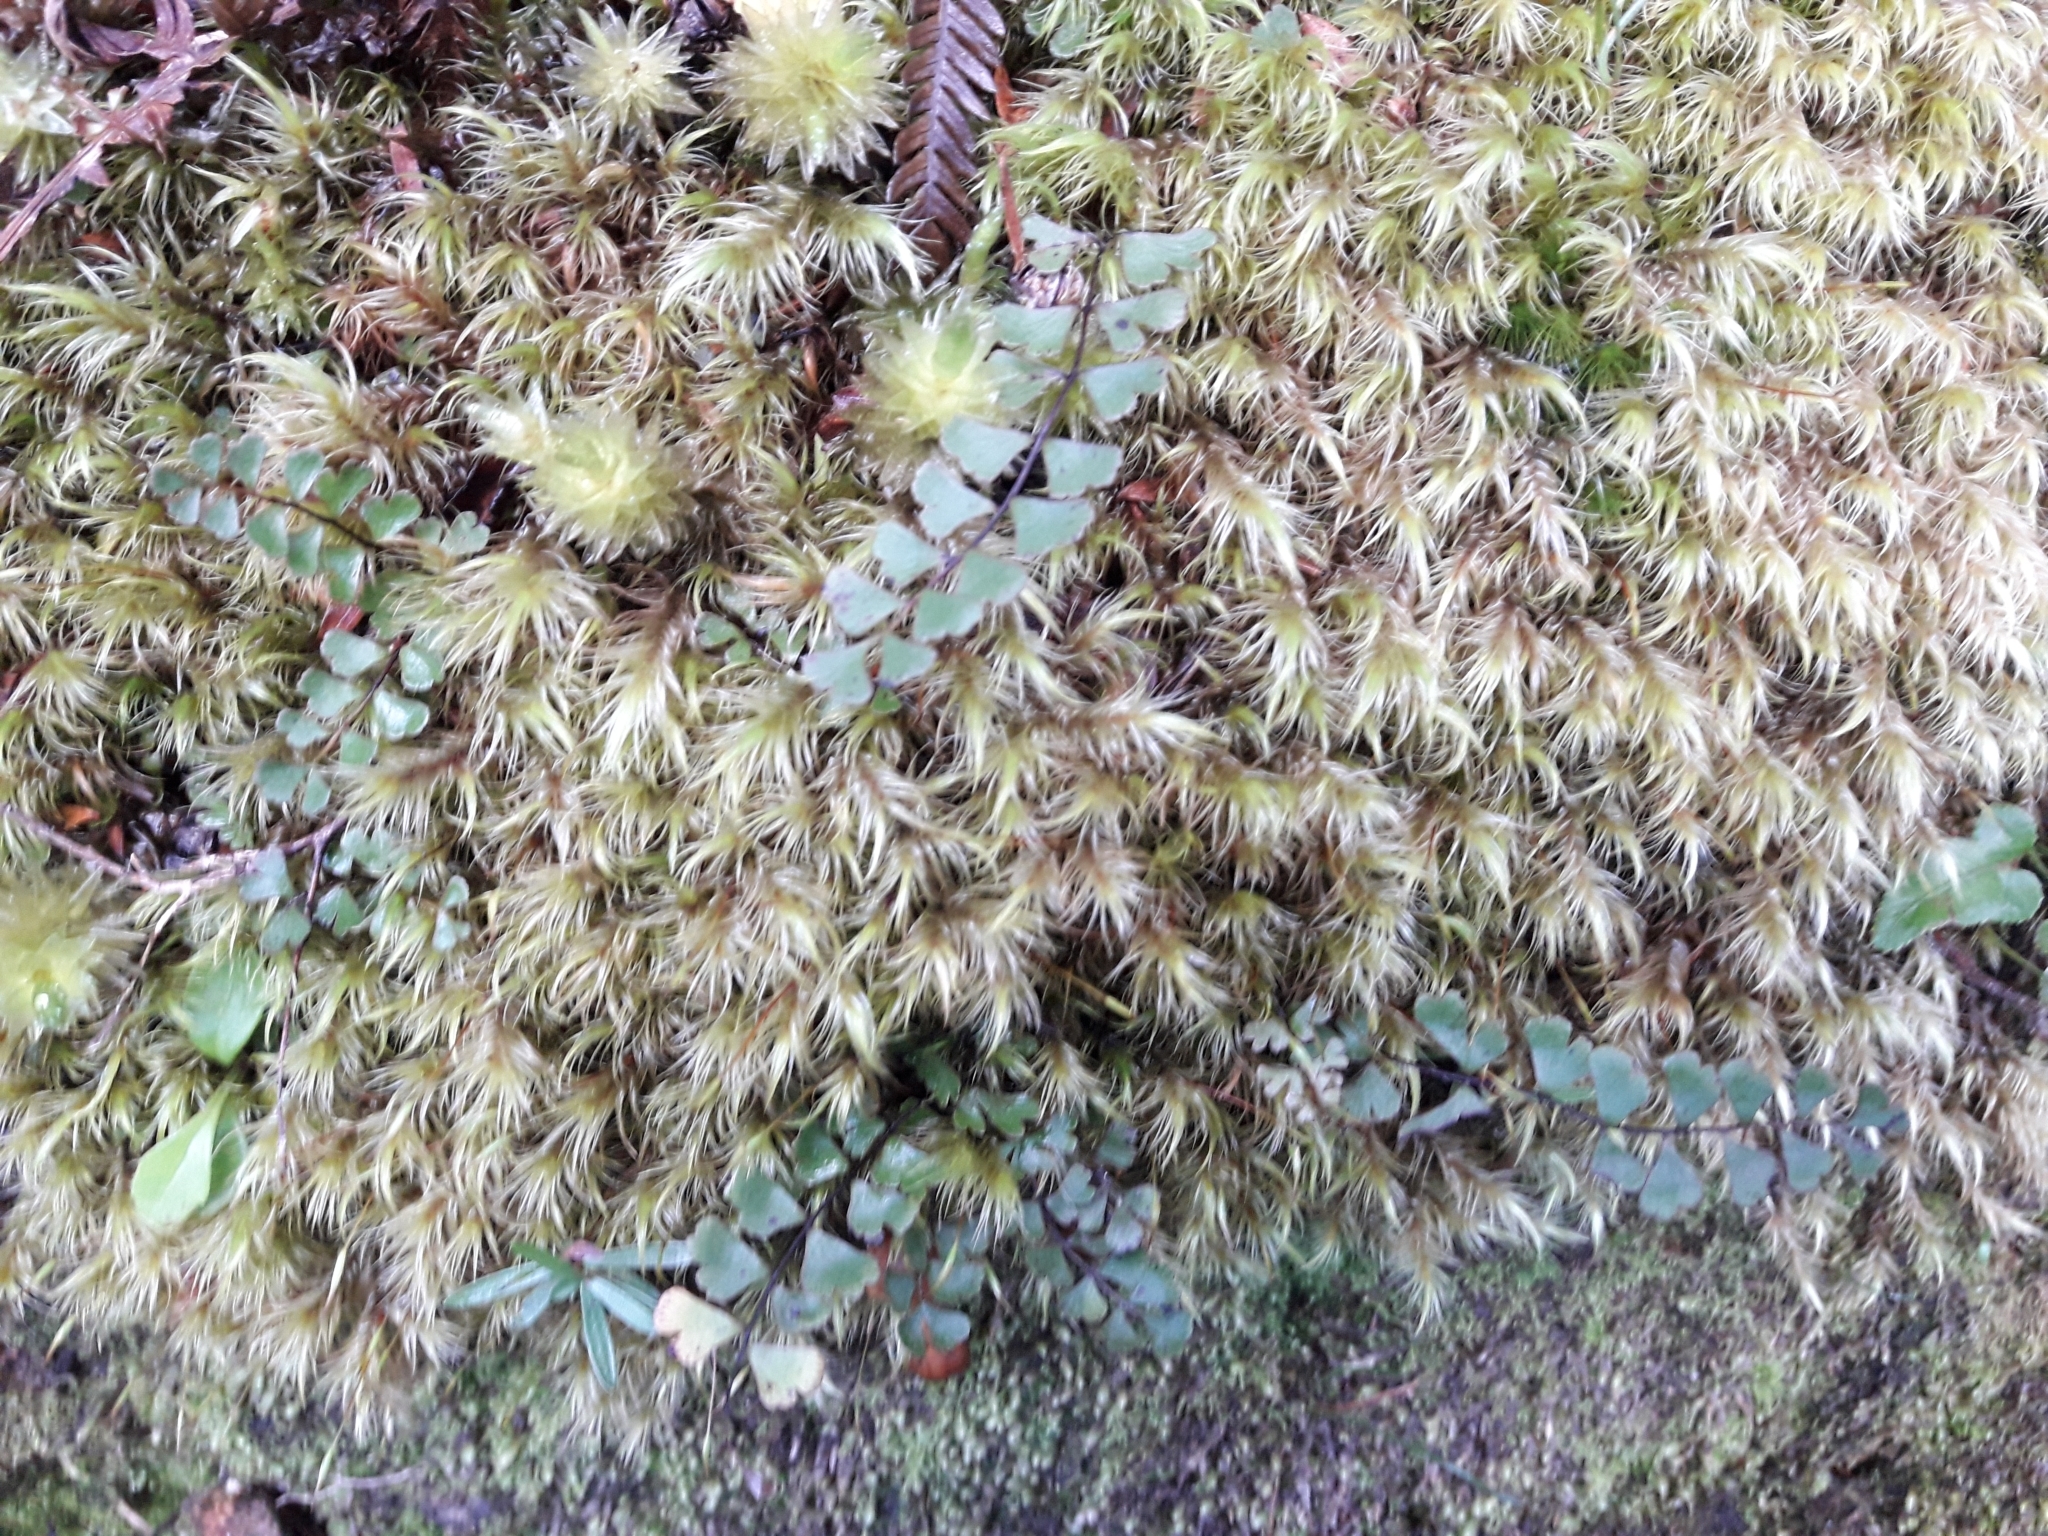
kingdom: Plantae
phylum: Tracheophyta
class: Polypodiopsida
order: Polypodiales
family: Lindsaeaceae
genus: Lindsaea
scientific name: Lindsaea linearis
